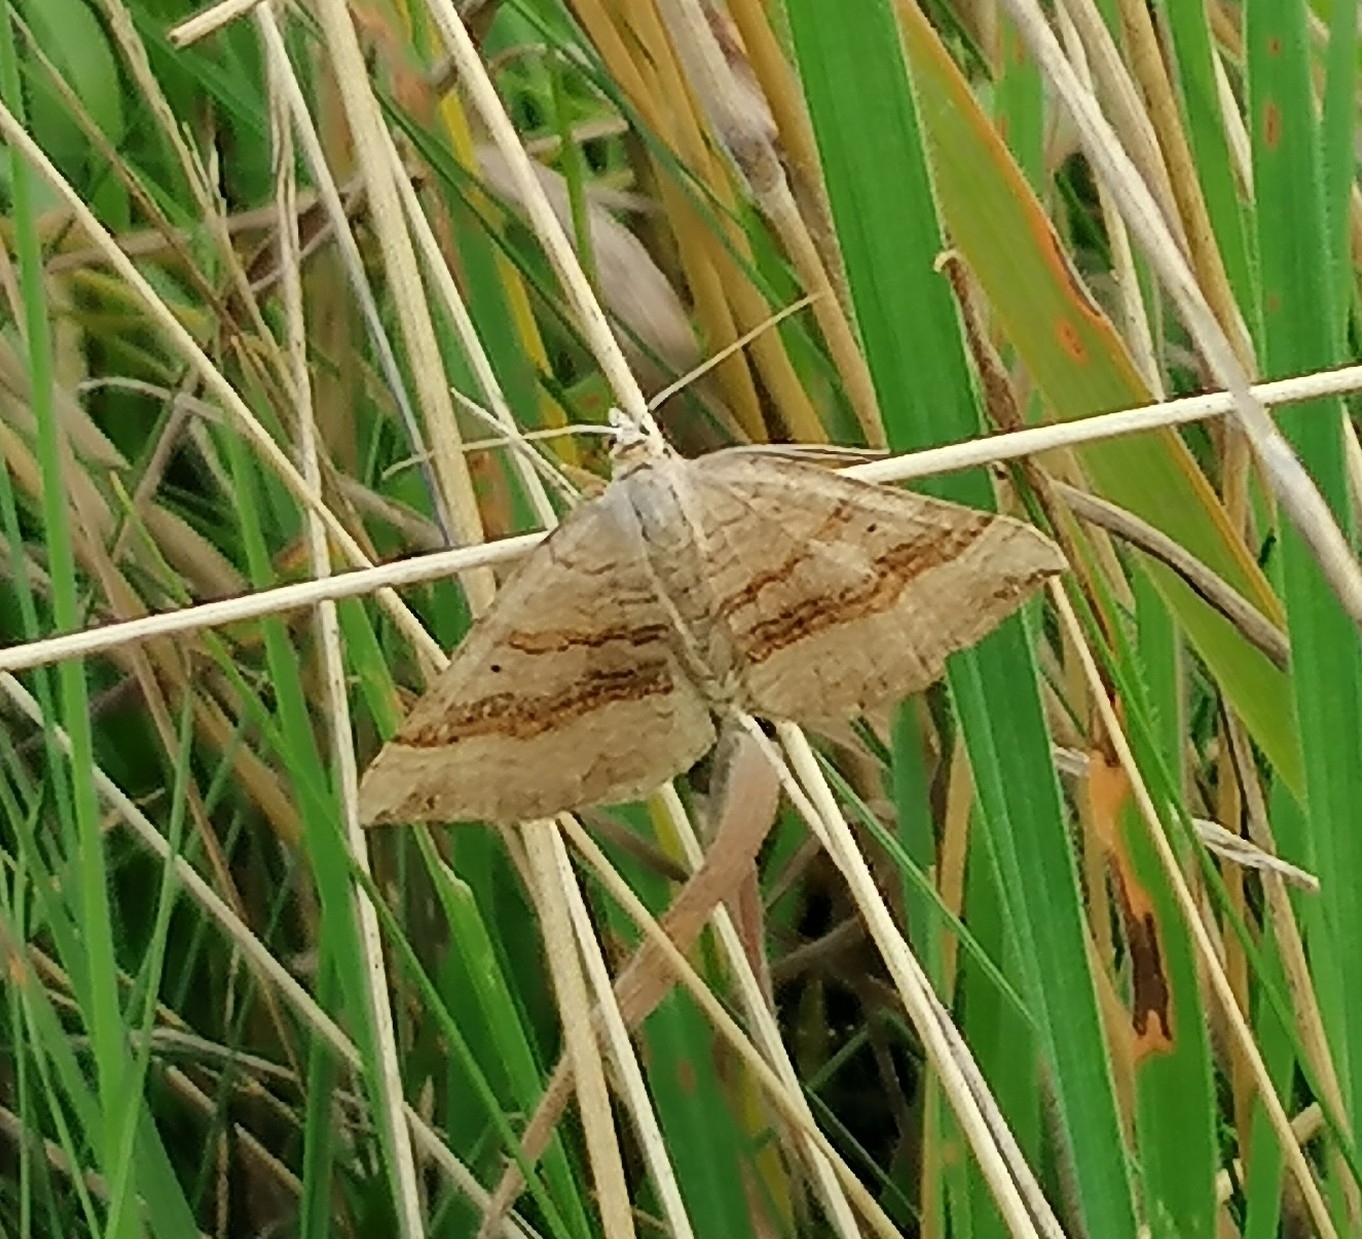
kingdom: Animalia
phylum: Arthropoda
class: Insecta
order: Lepidoptera
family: Geometridae
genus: Scotopteryx
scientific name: Scotopteryx chenopodiata
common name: Shaded broad-bar
